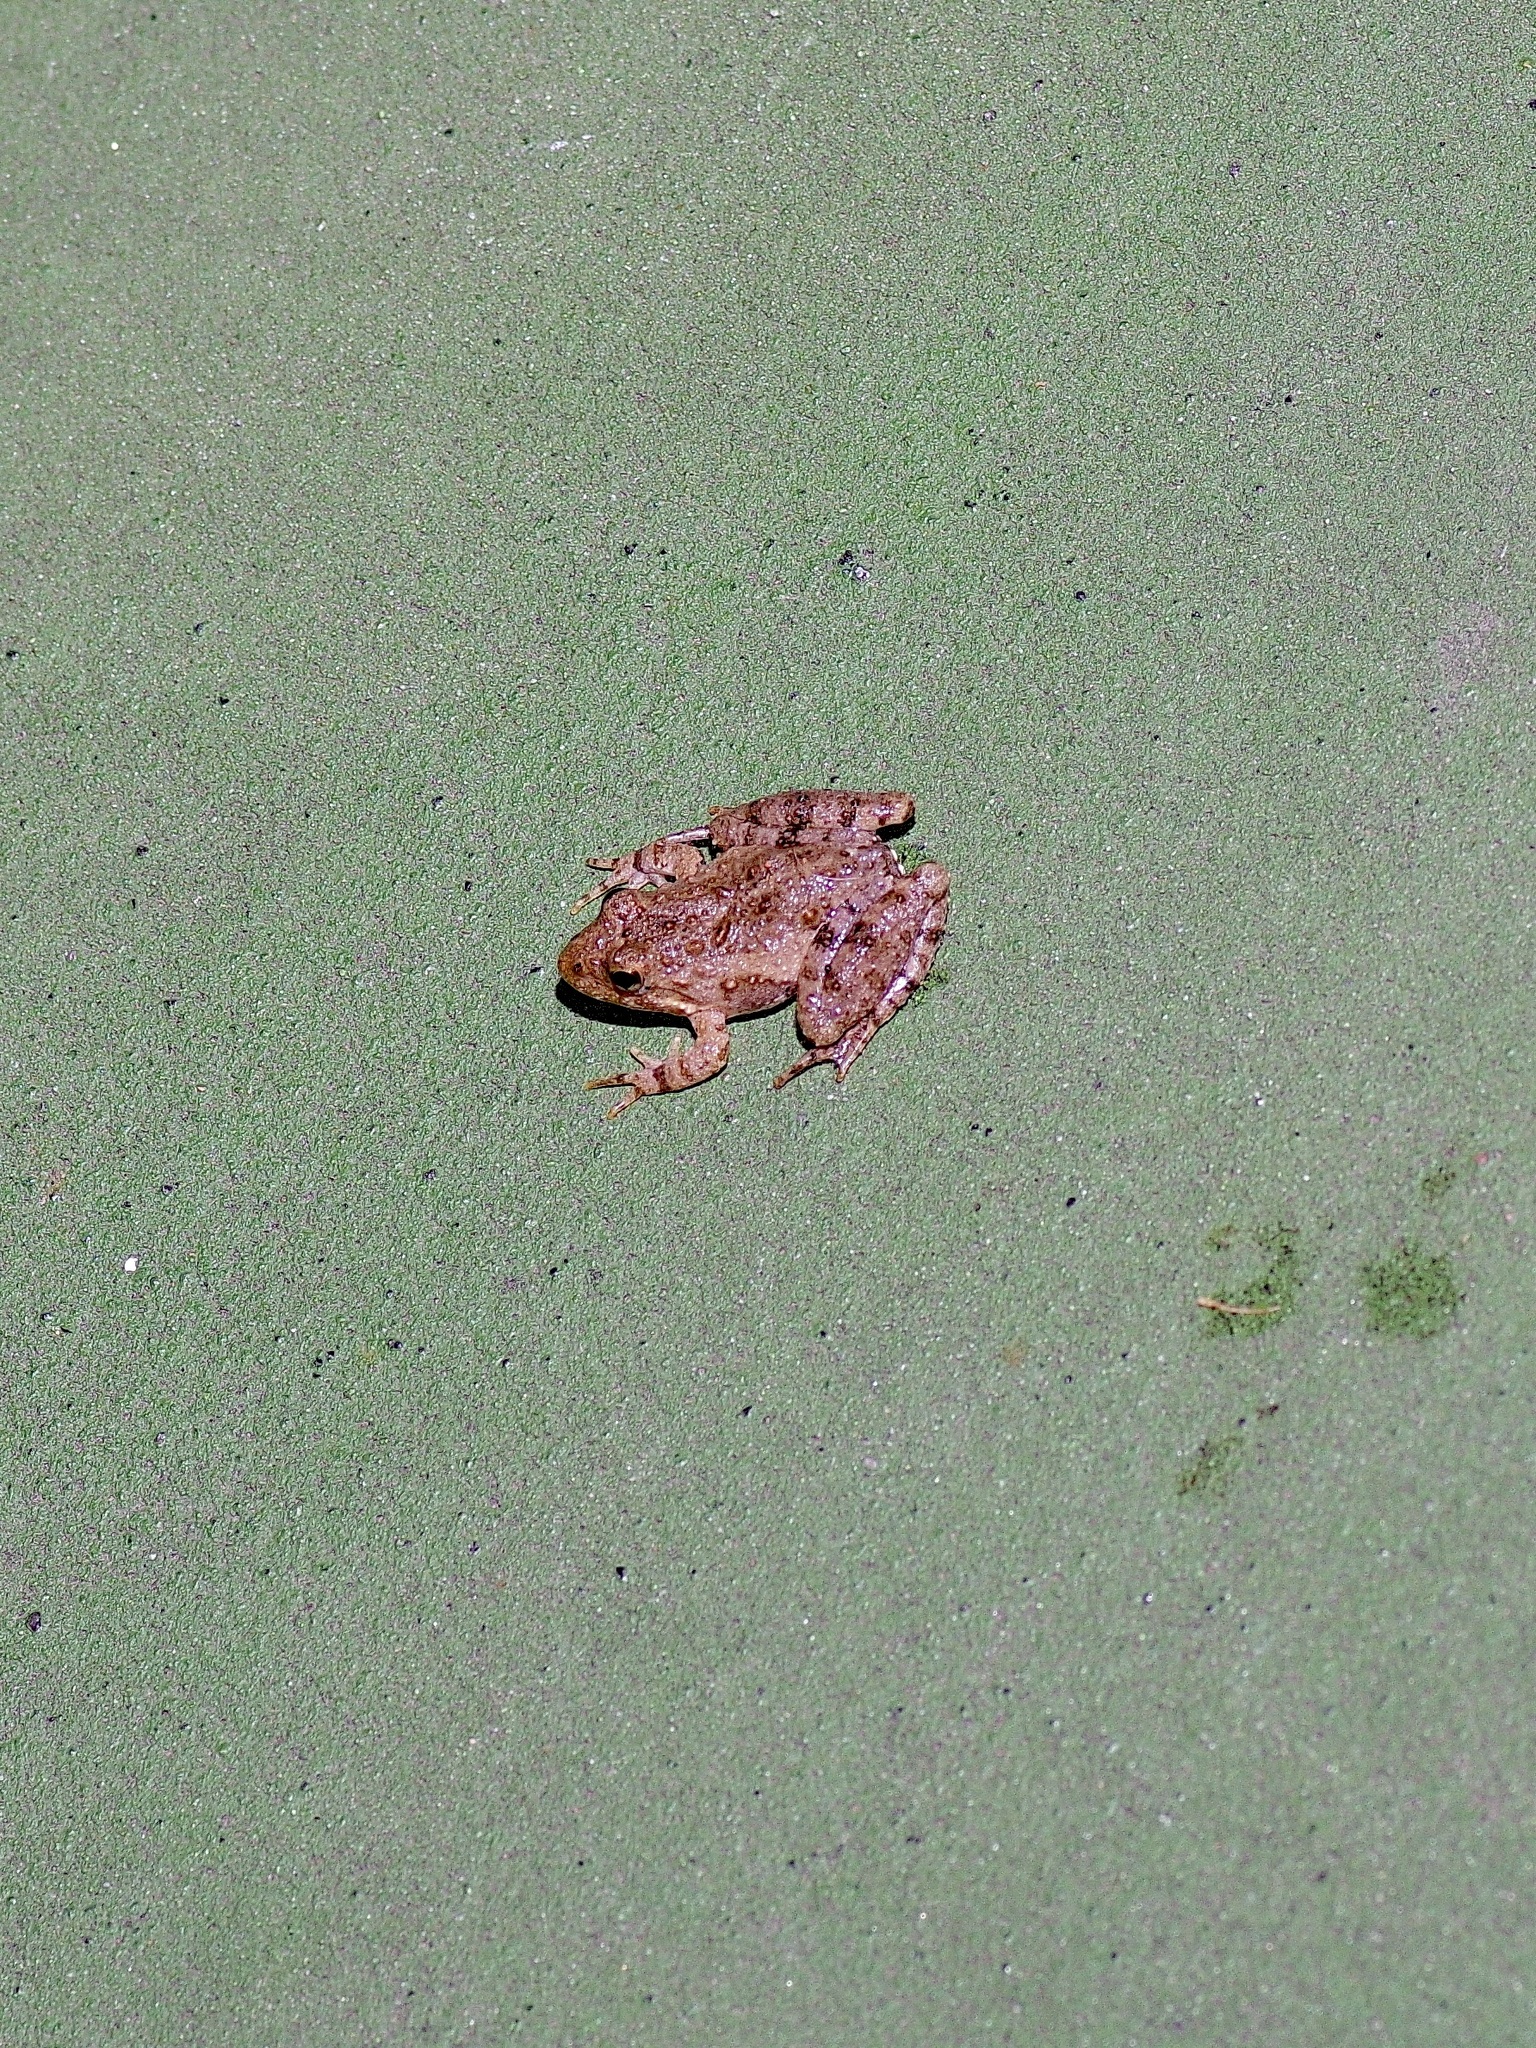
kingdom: Animalia
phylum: Chordata
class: Amphibia
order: Anura
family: Hylidae
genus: Acris
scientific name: Acris blanchardi
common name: Blanchard's cricket frog
